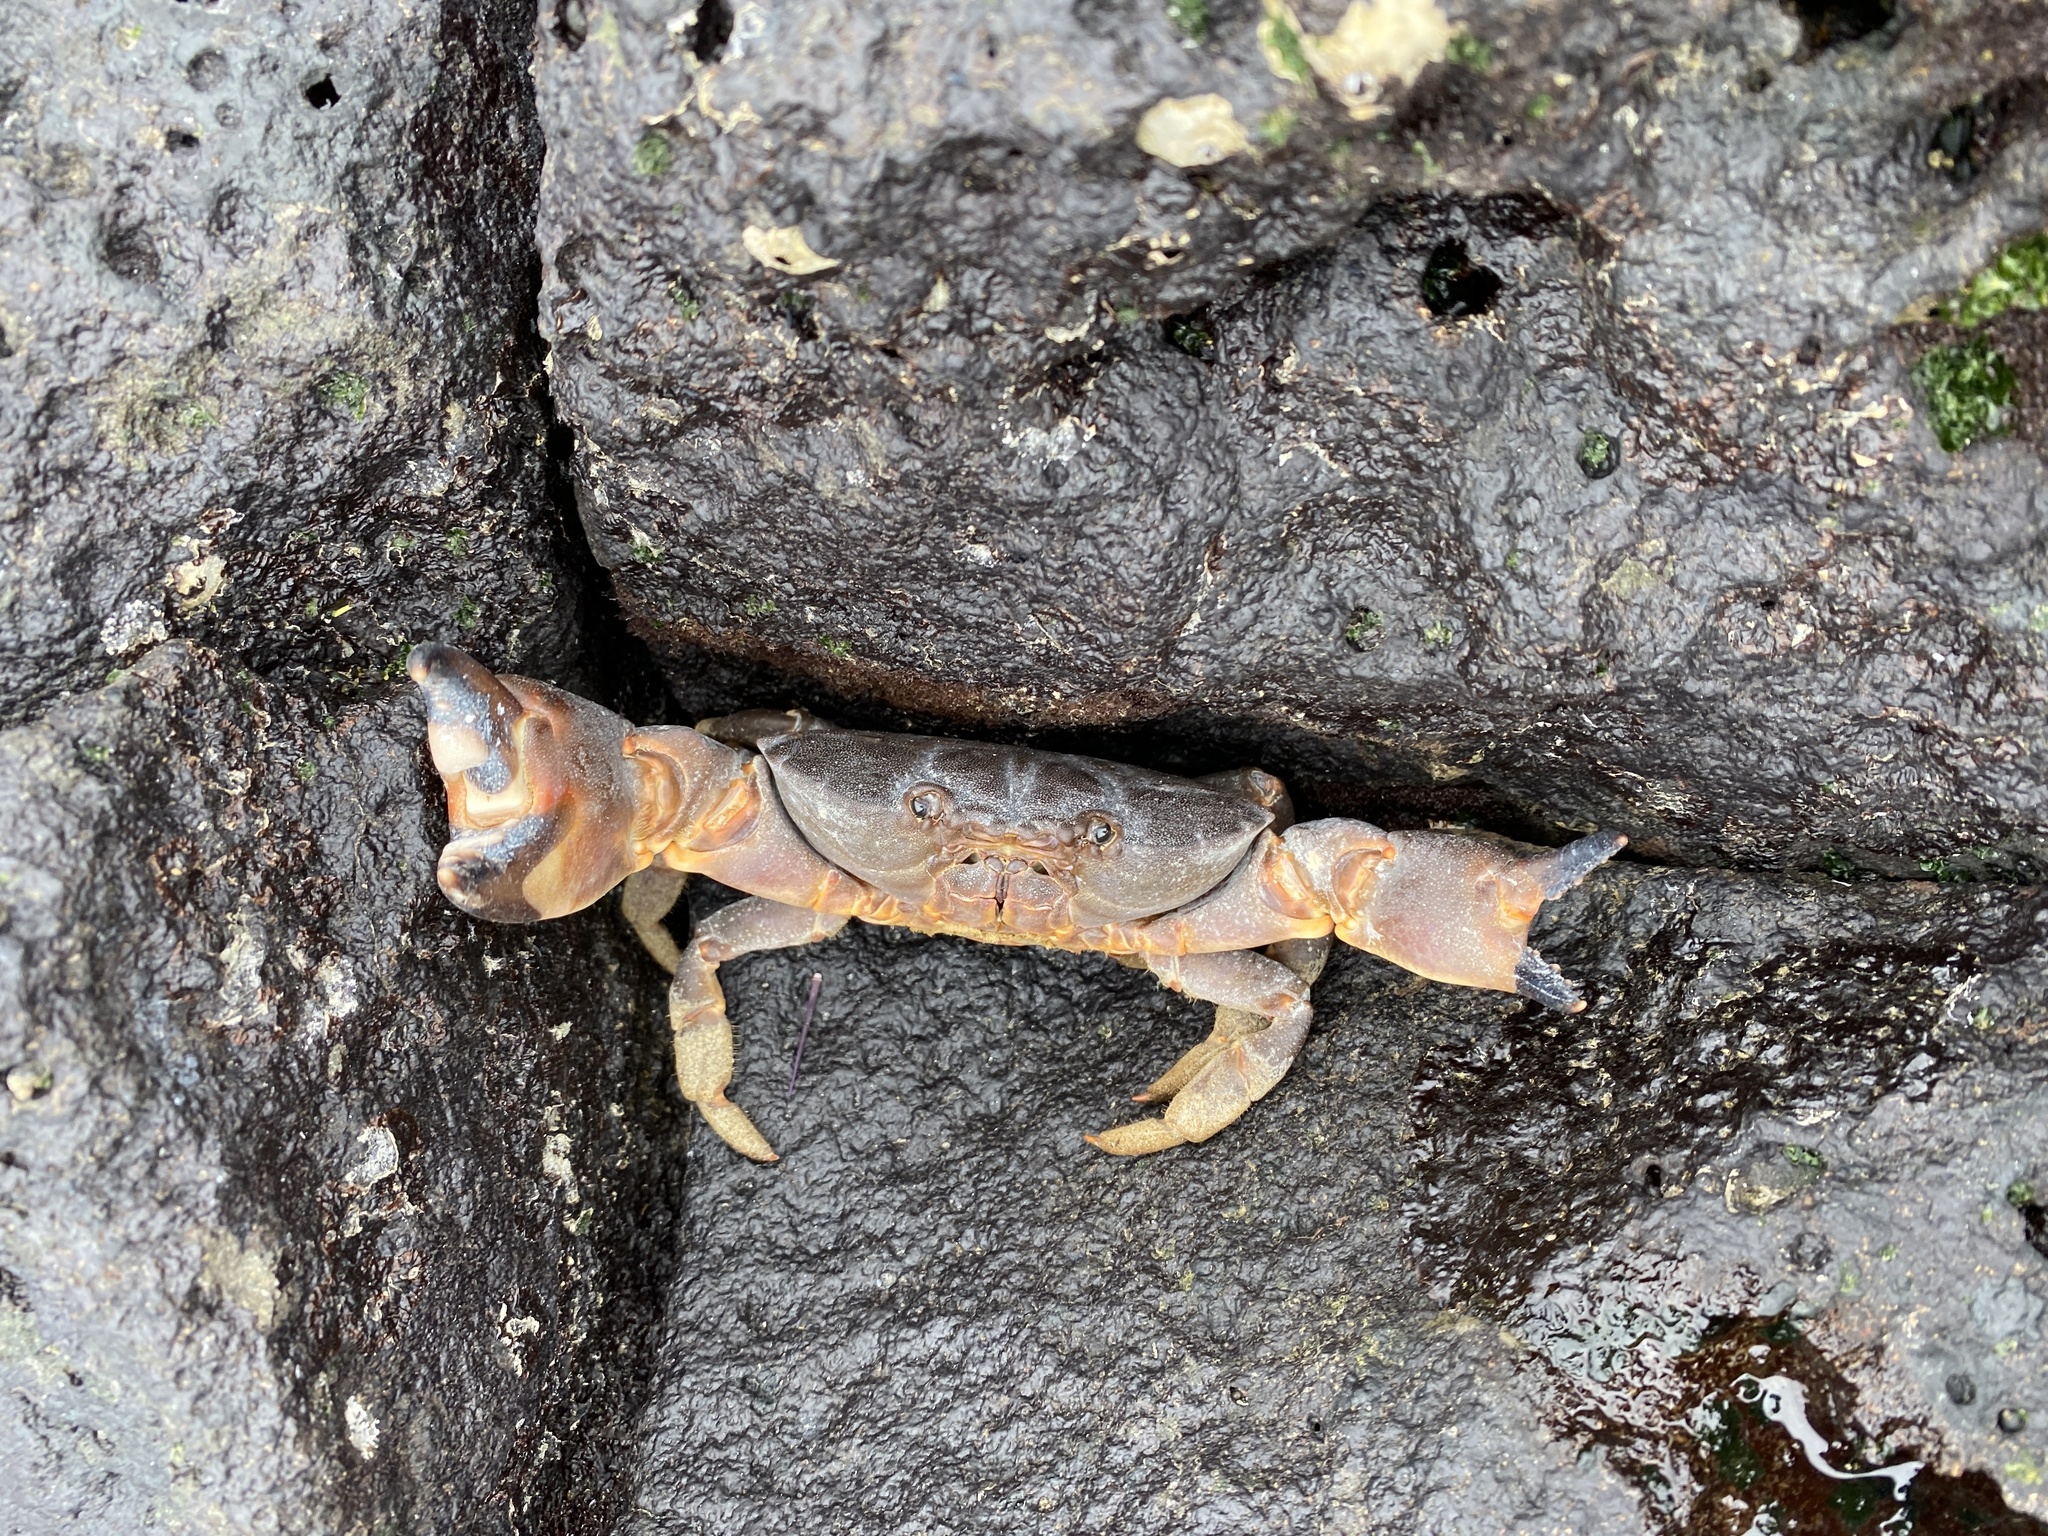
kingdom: Animalia
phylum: Arthropoda
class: Malacostraca
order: Decapoda
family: Oziidae
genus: Ozius
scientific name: Ozius verreauxii
